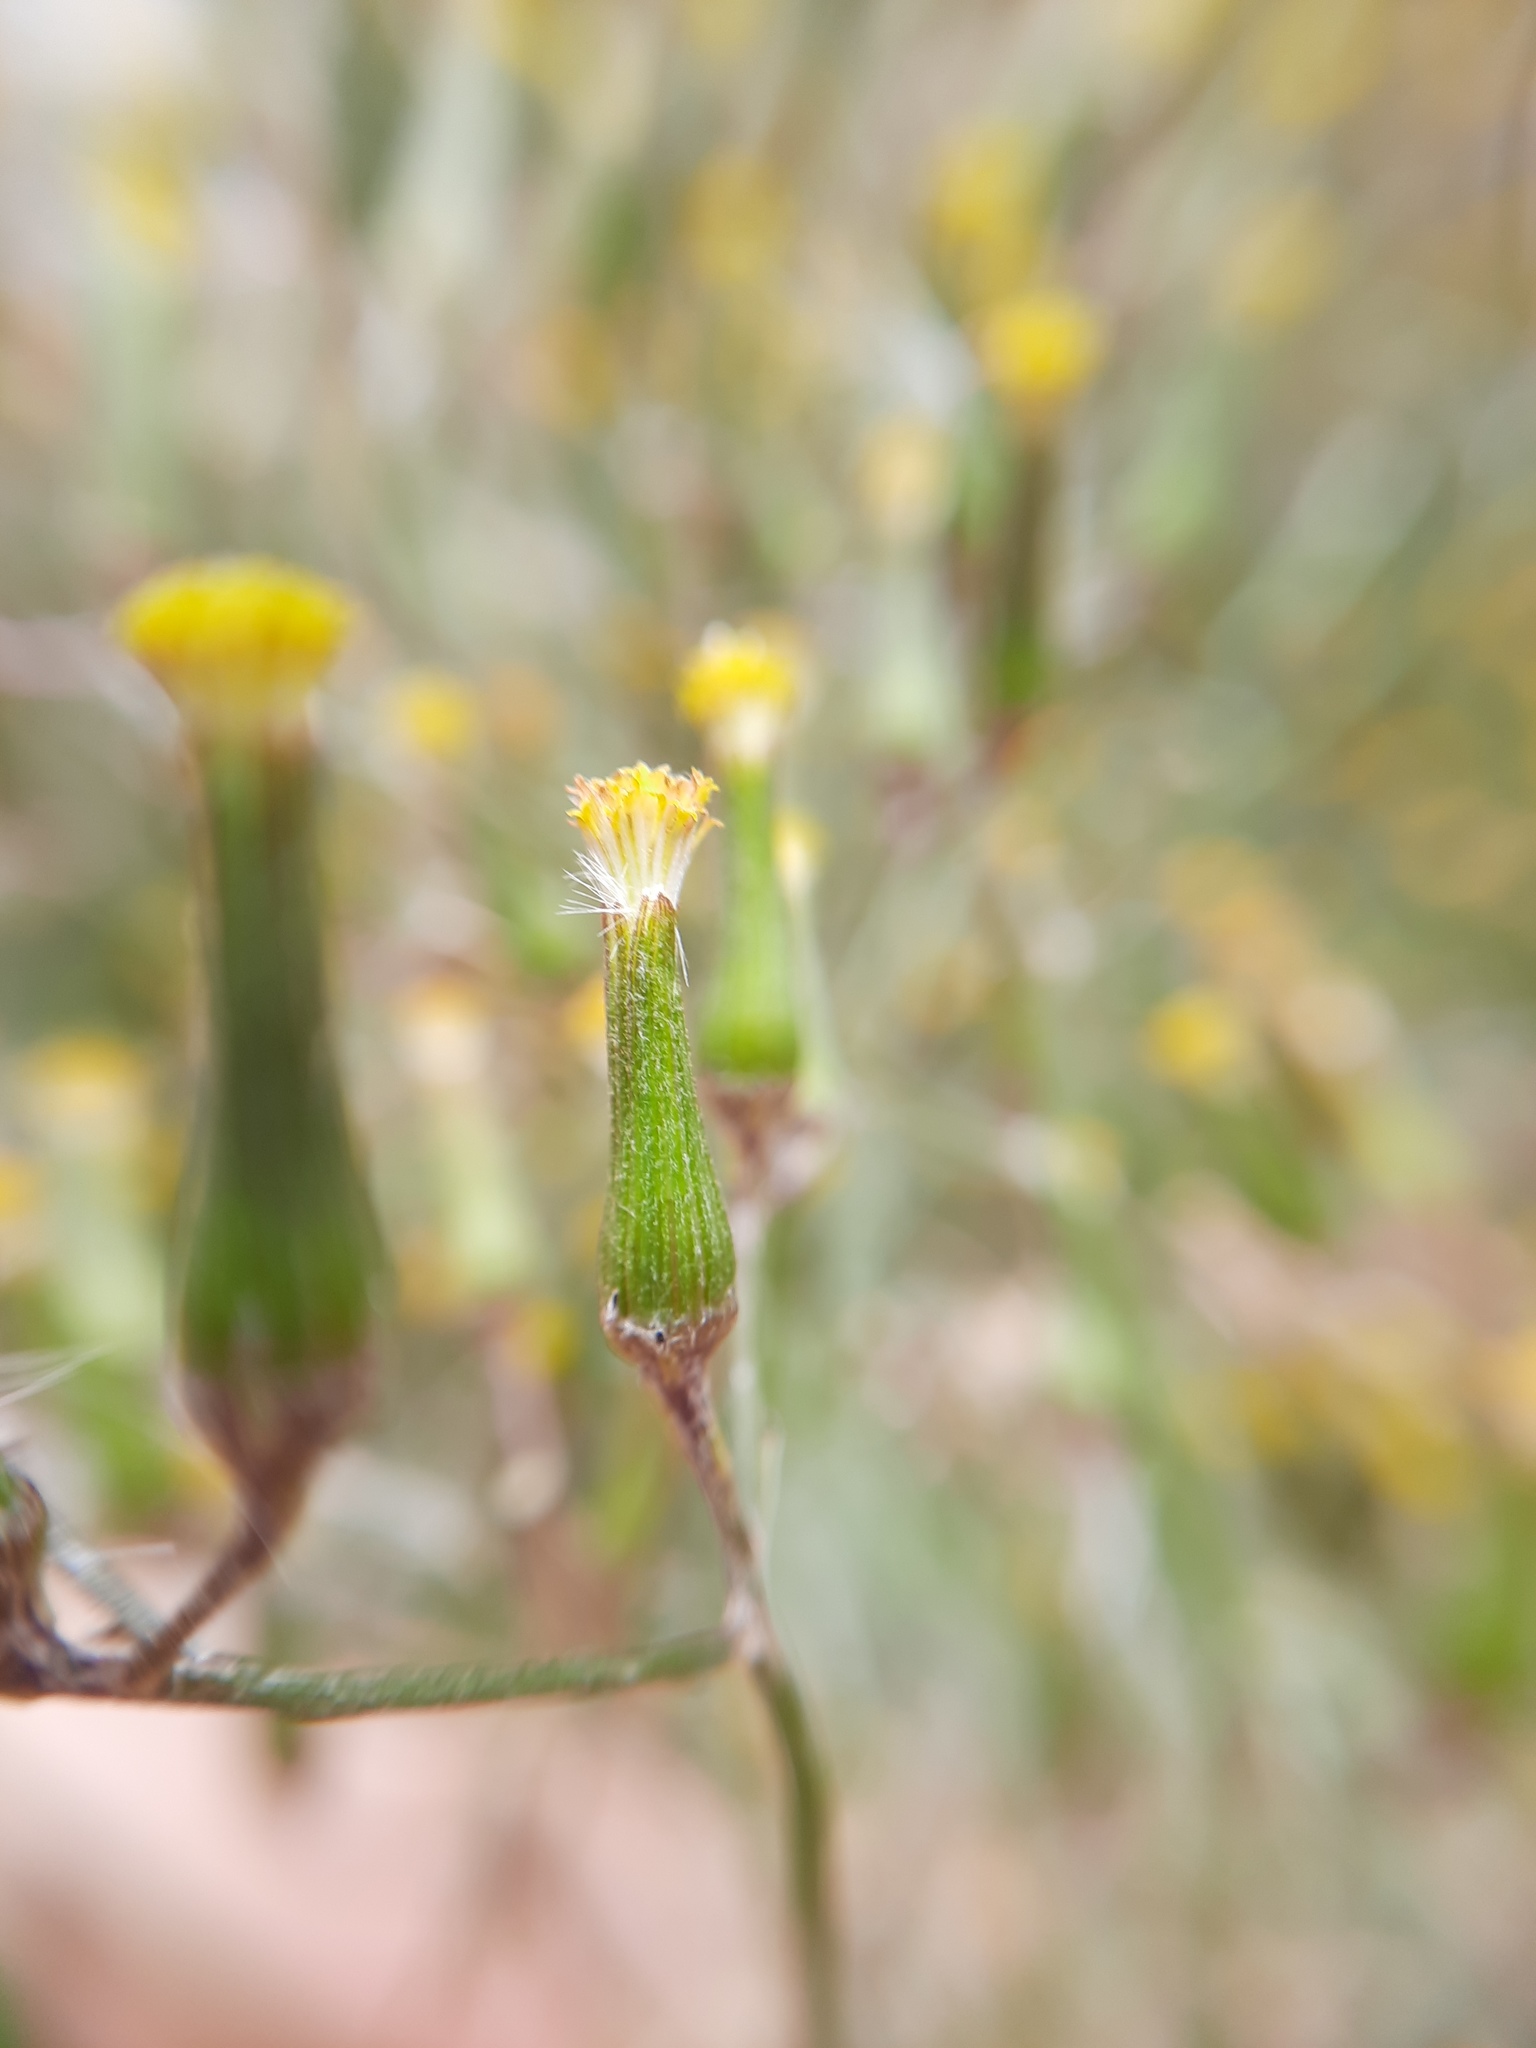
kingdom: Plantae
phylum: Tracheophyta
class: Magnoliopsida
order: Asterales
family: Asteraceae
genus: Senecio
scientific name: Senecio quadridentatus
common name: Cotton fireweed
